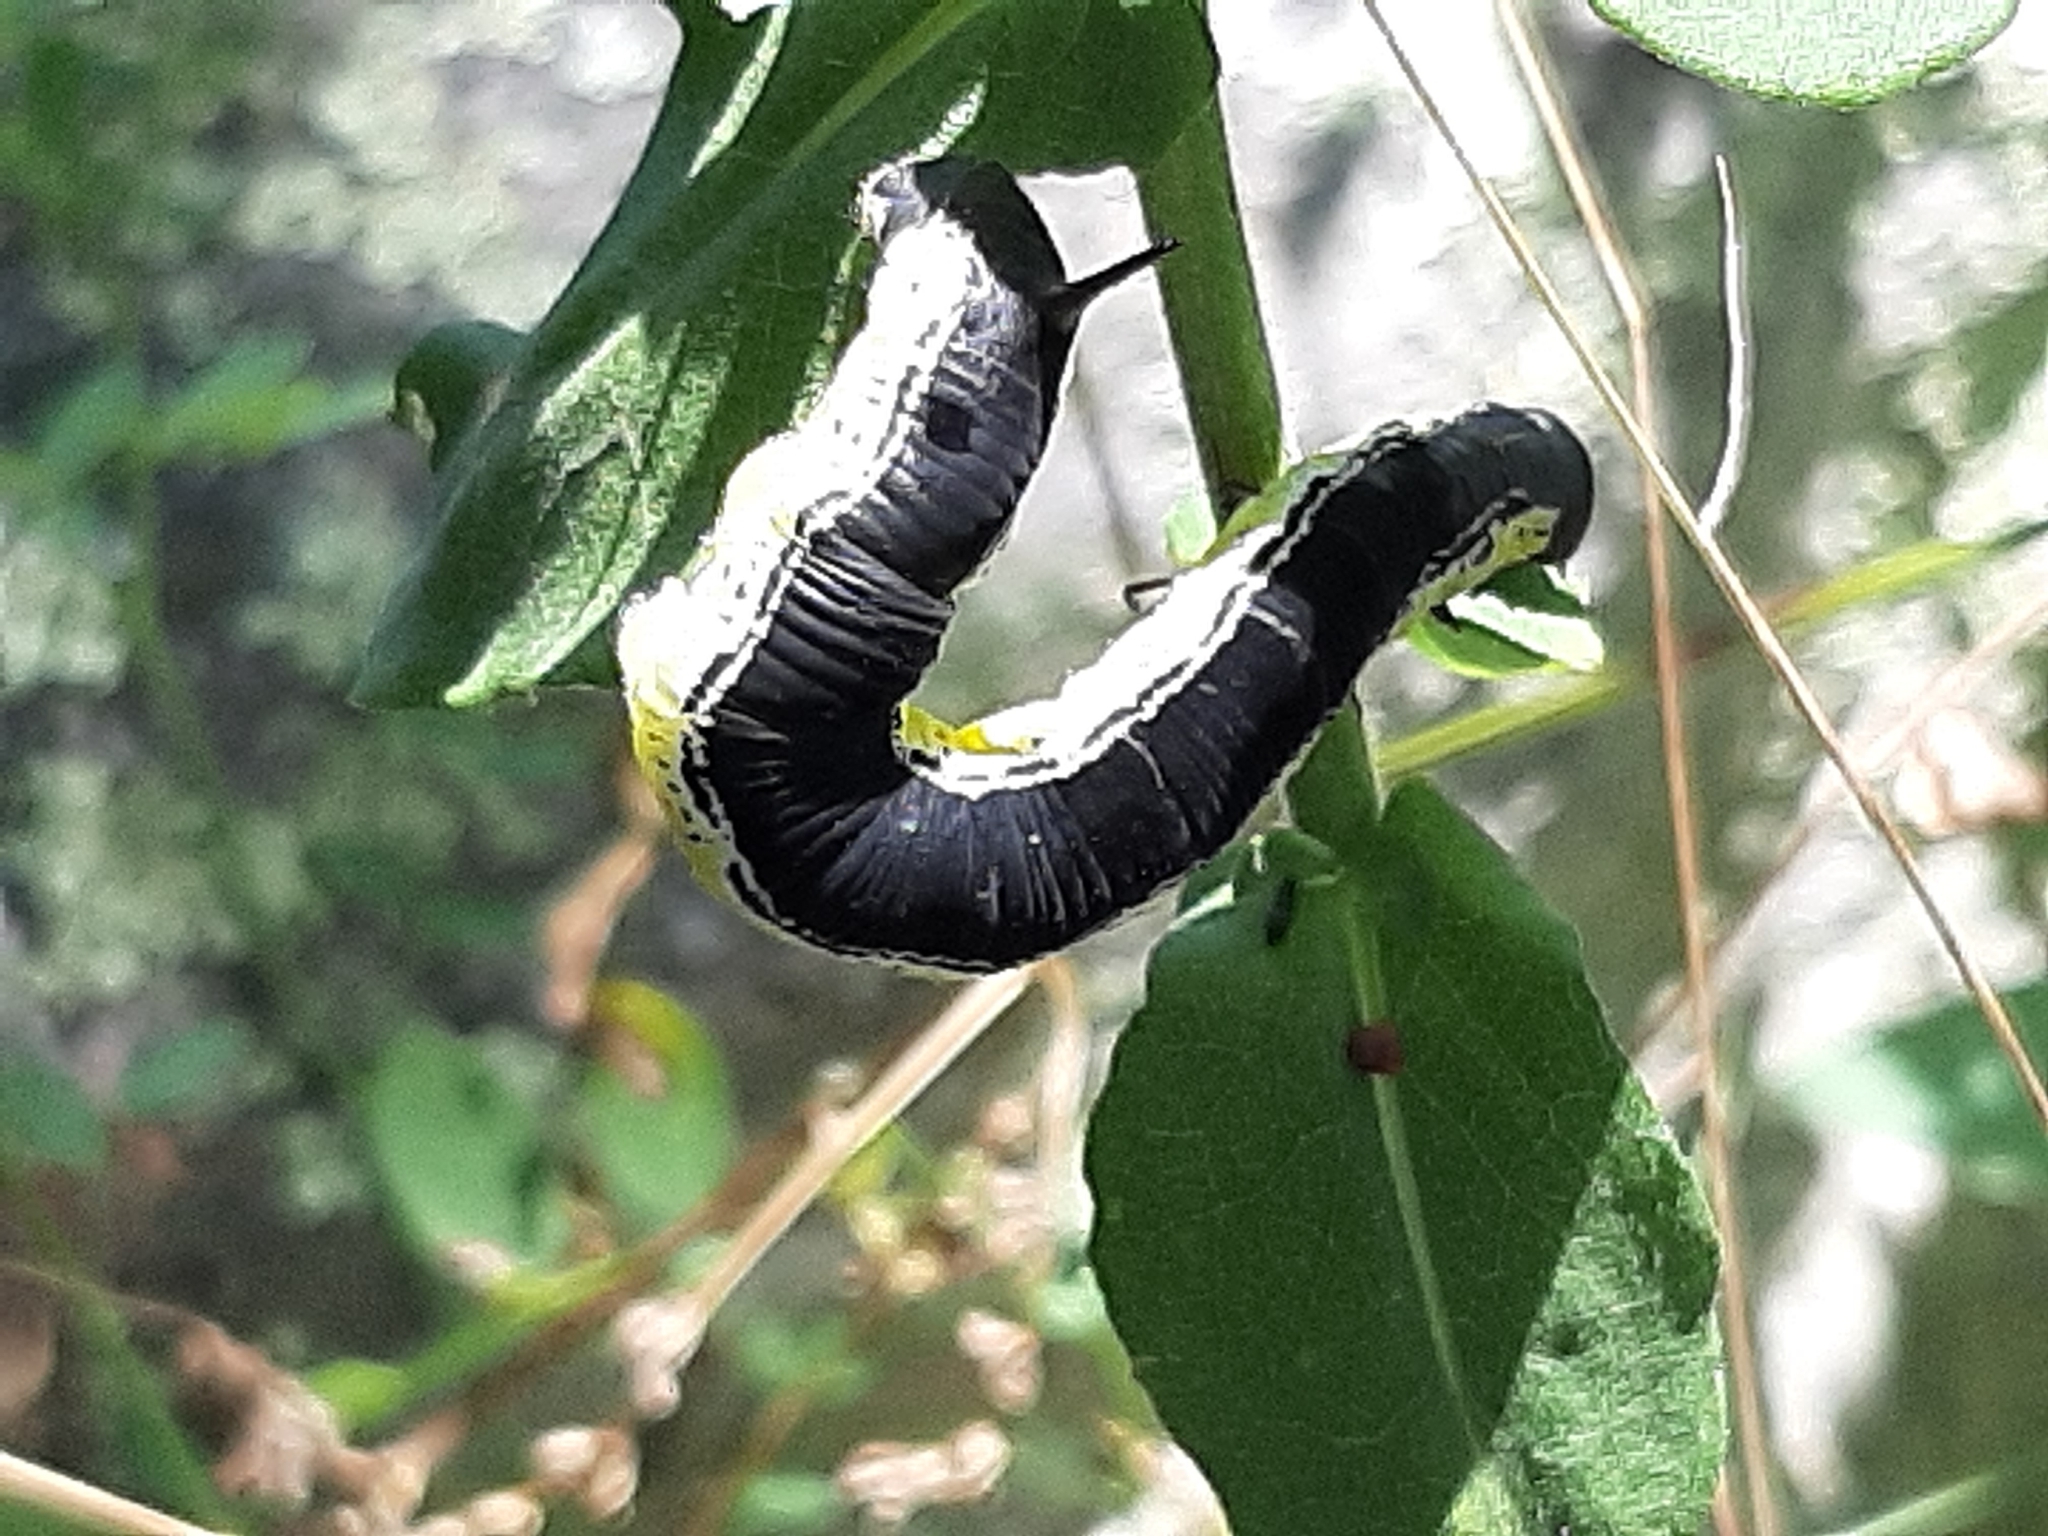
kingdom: Animalia
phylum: Arthropoda
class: Insecta
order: Lepidoptera
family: Sphingidae
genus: Ceratomia
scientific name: Ceratomia catalpae
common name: Catalpa hornworm
